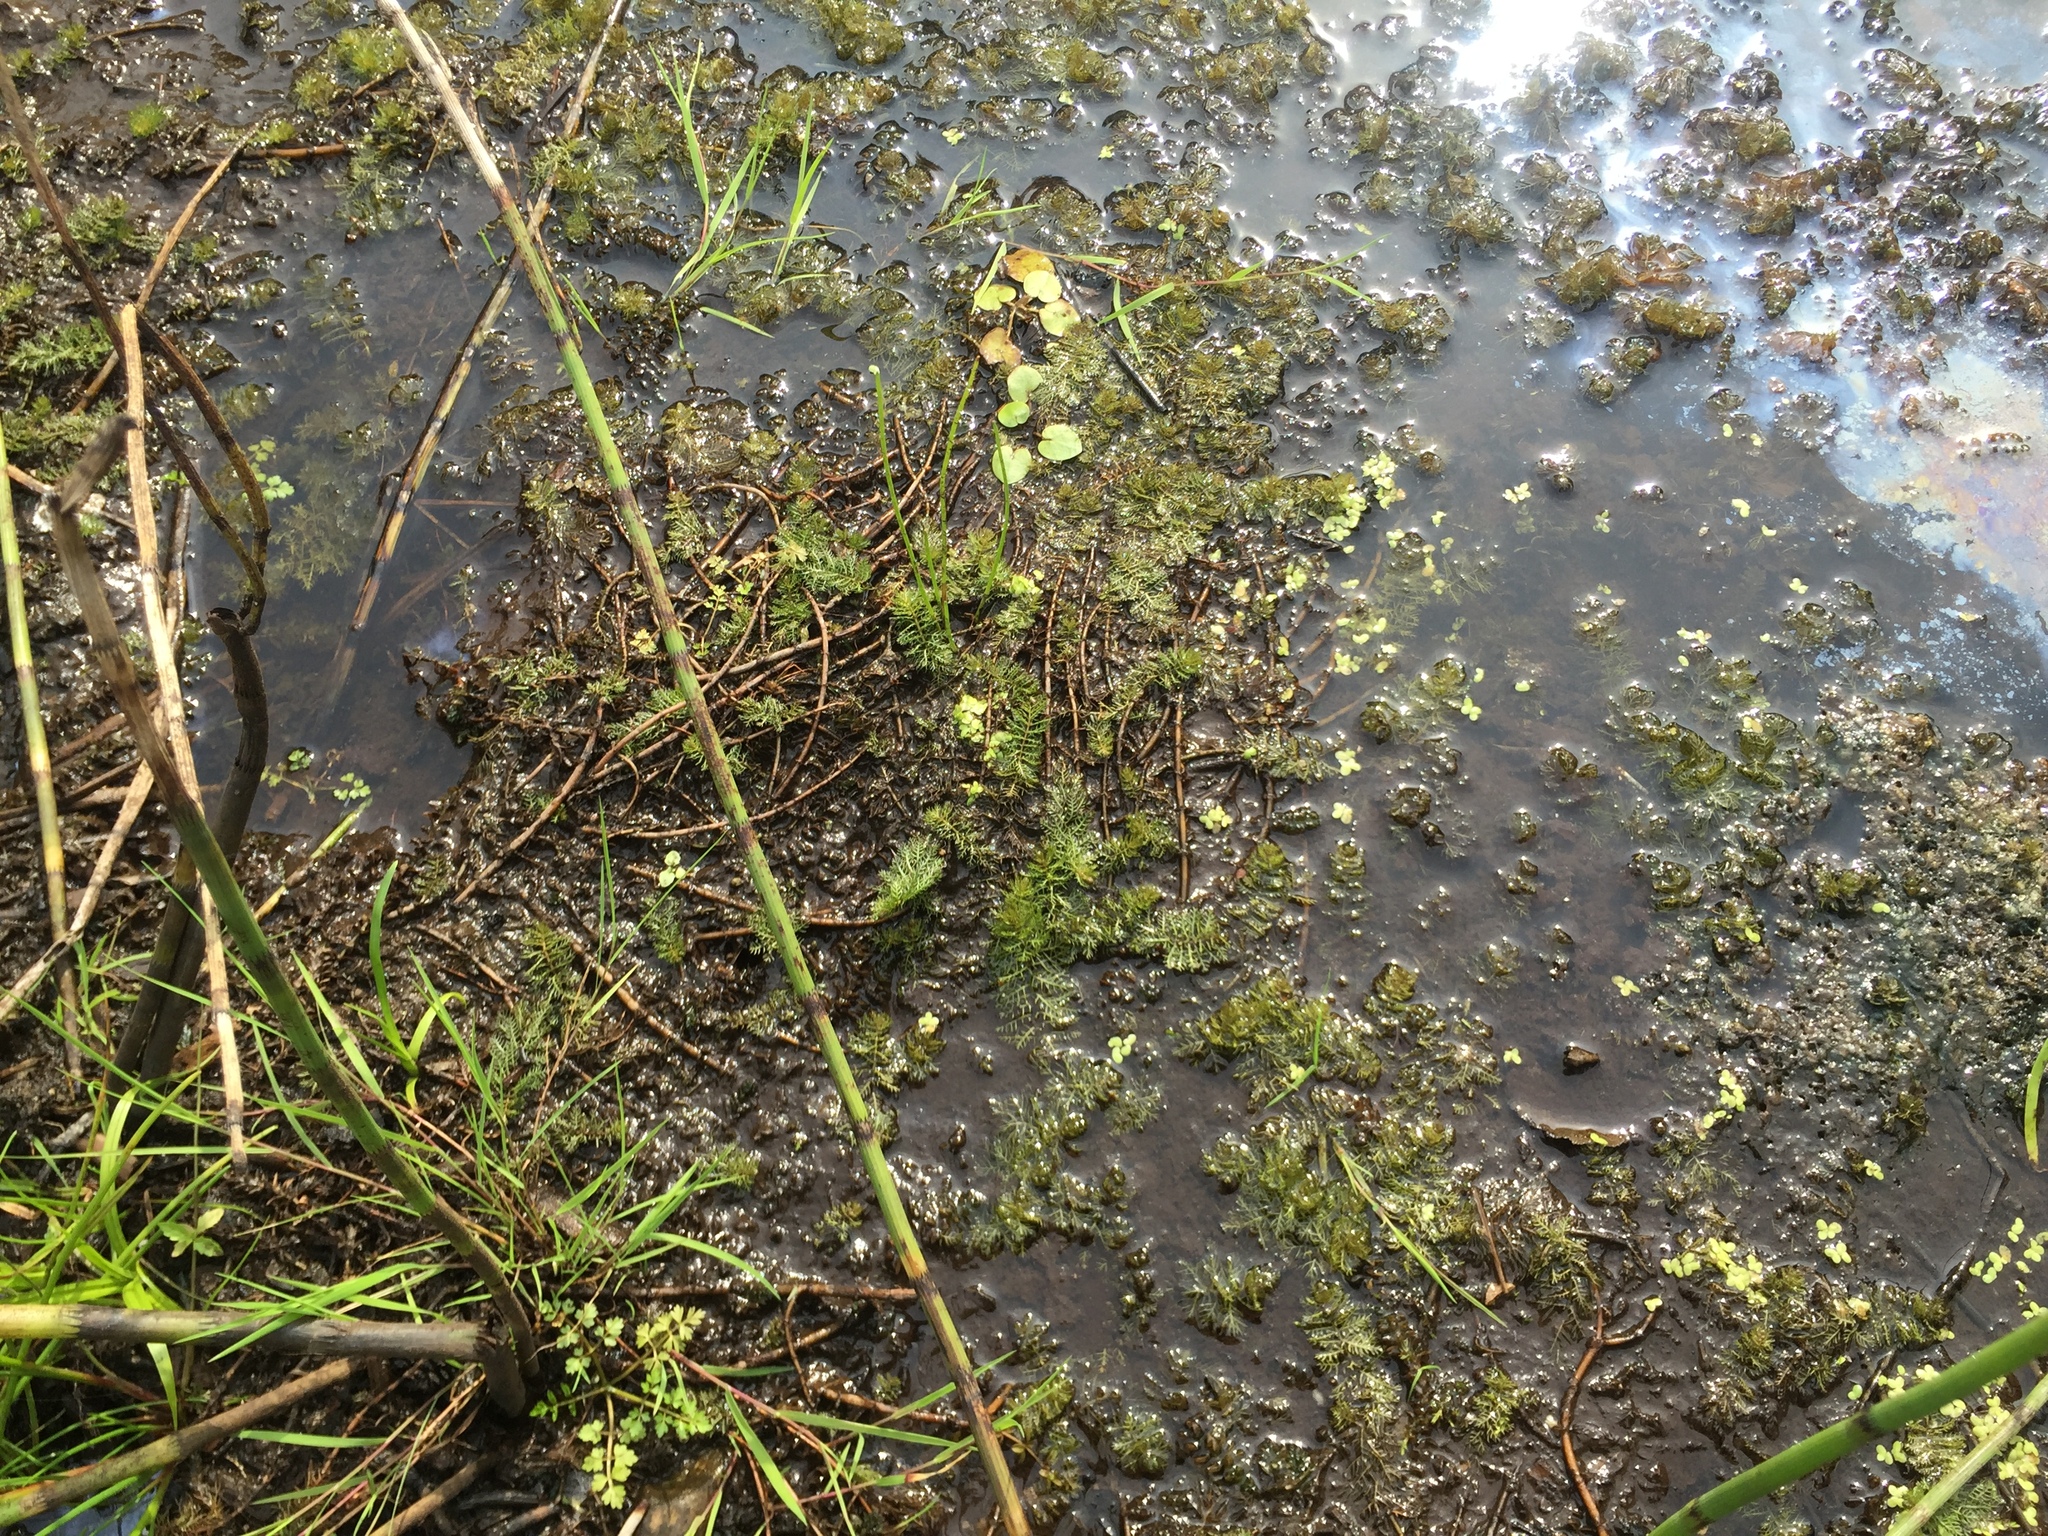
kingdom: Plantae
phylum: Tracheophyta
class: Magnoliopsida
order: Saxifragales
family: Haloragaceae
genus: Myriophyllum
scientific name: Myriophyllum verticillatum
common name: Whorled water-milfoil
